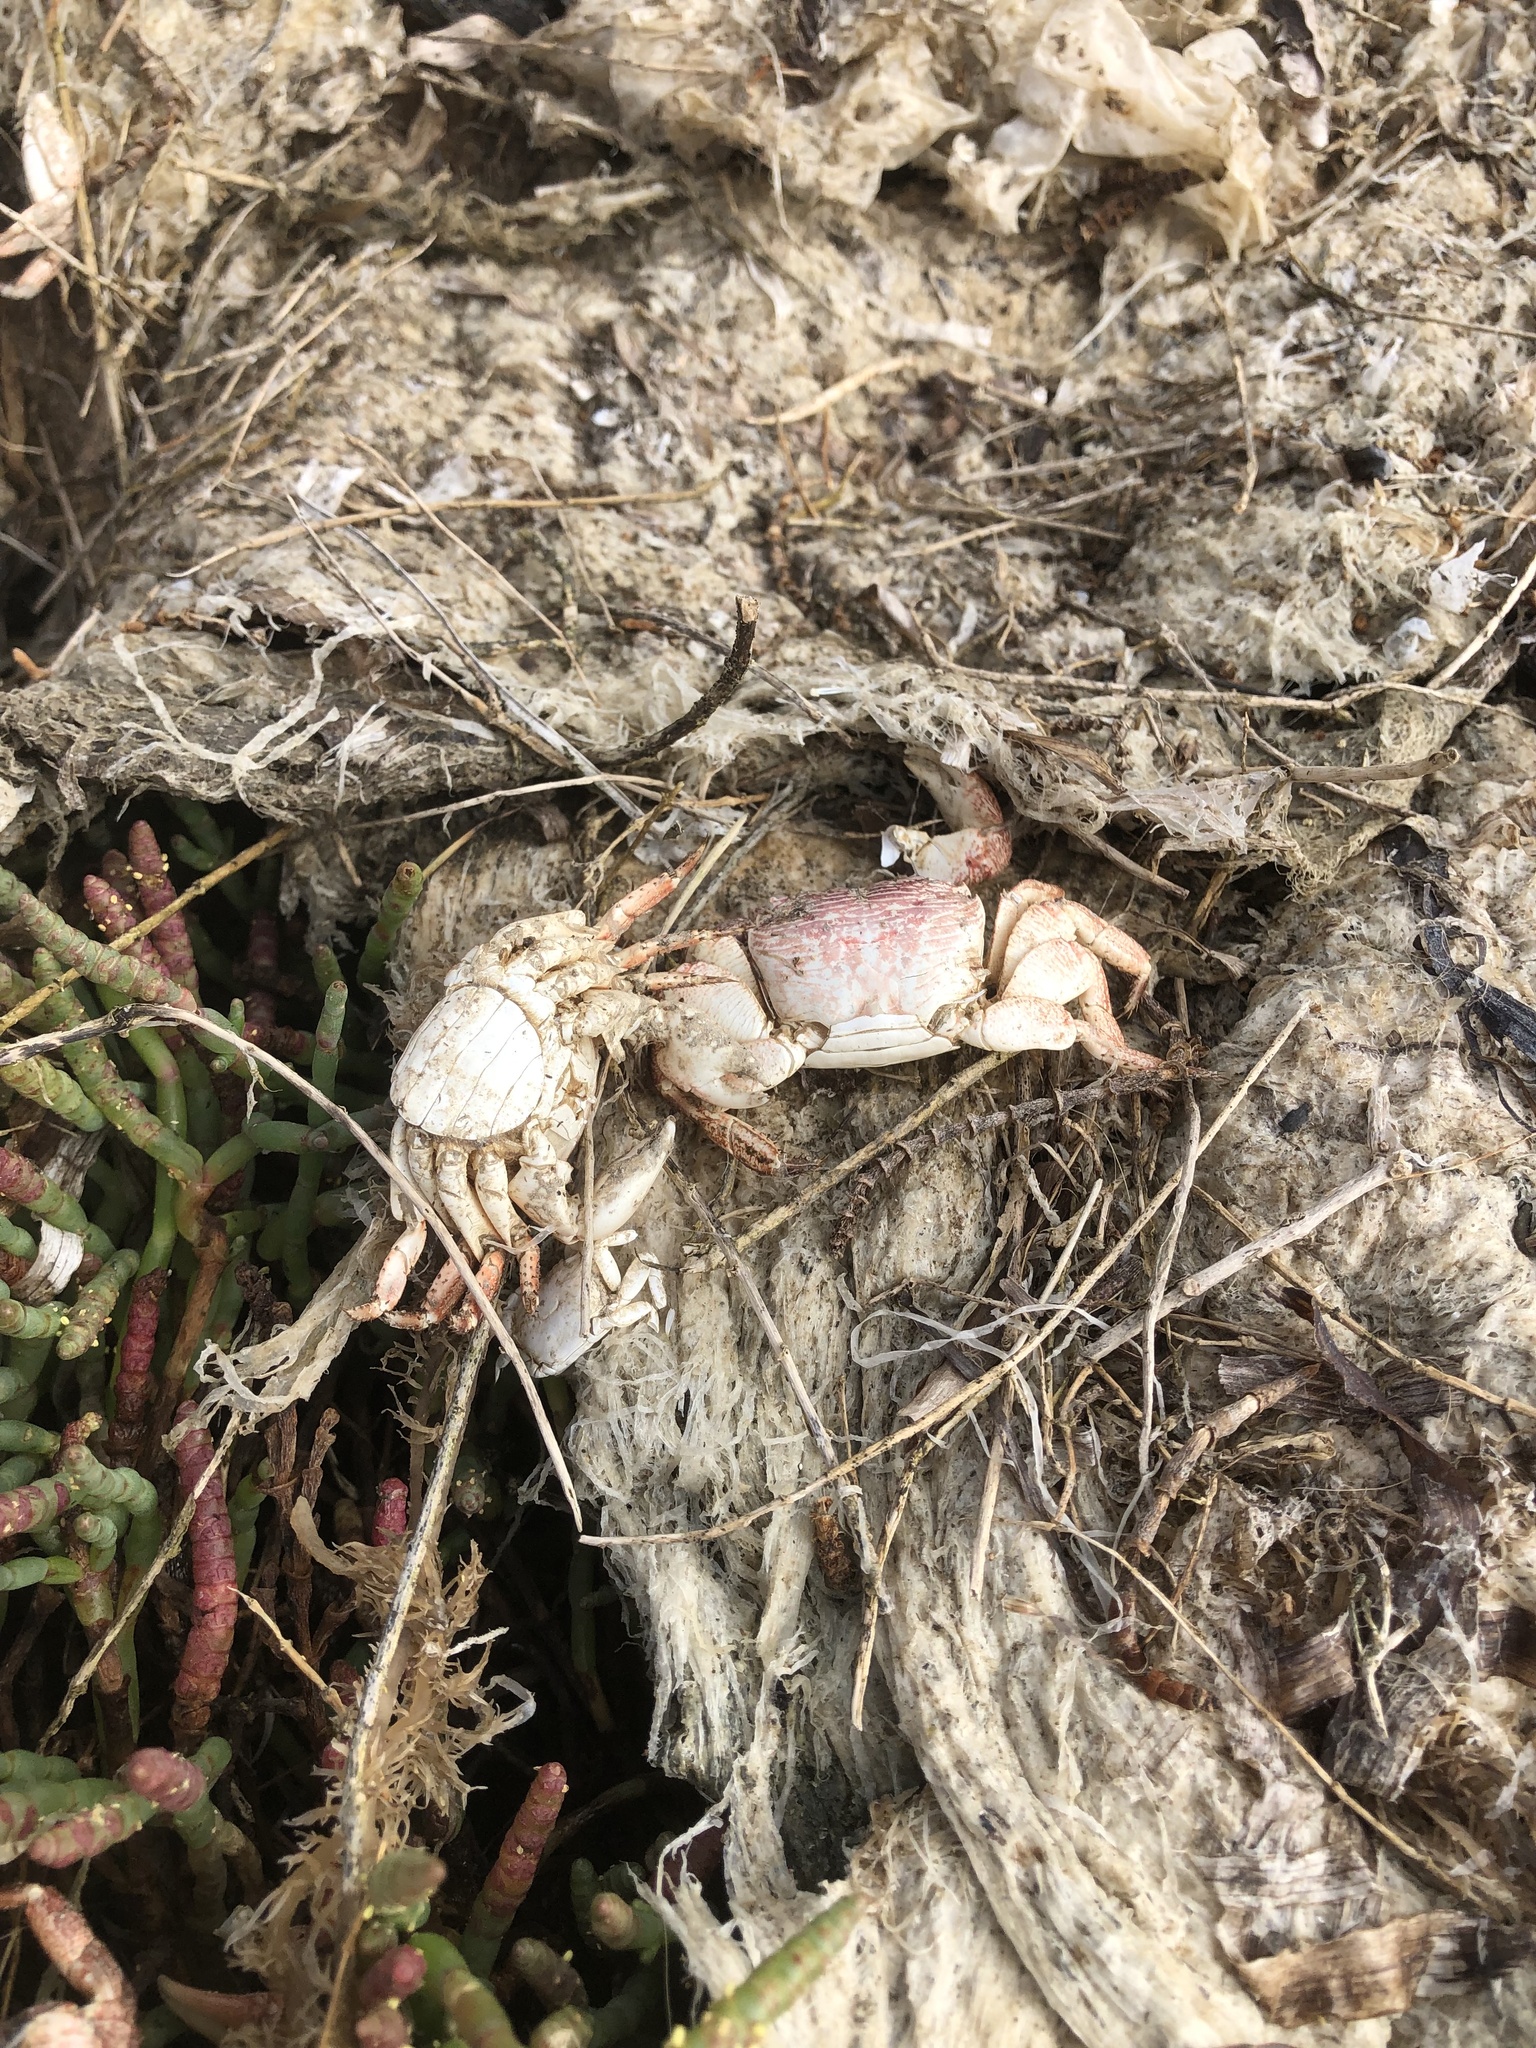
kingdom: Animalia
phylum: Arthropoda
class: Malacostraca
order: Decapoda
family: Grapsidae
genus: Pachygrapsus
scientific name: Pachygrapsus crassipes
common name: Striped shore crab
